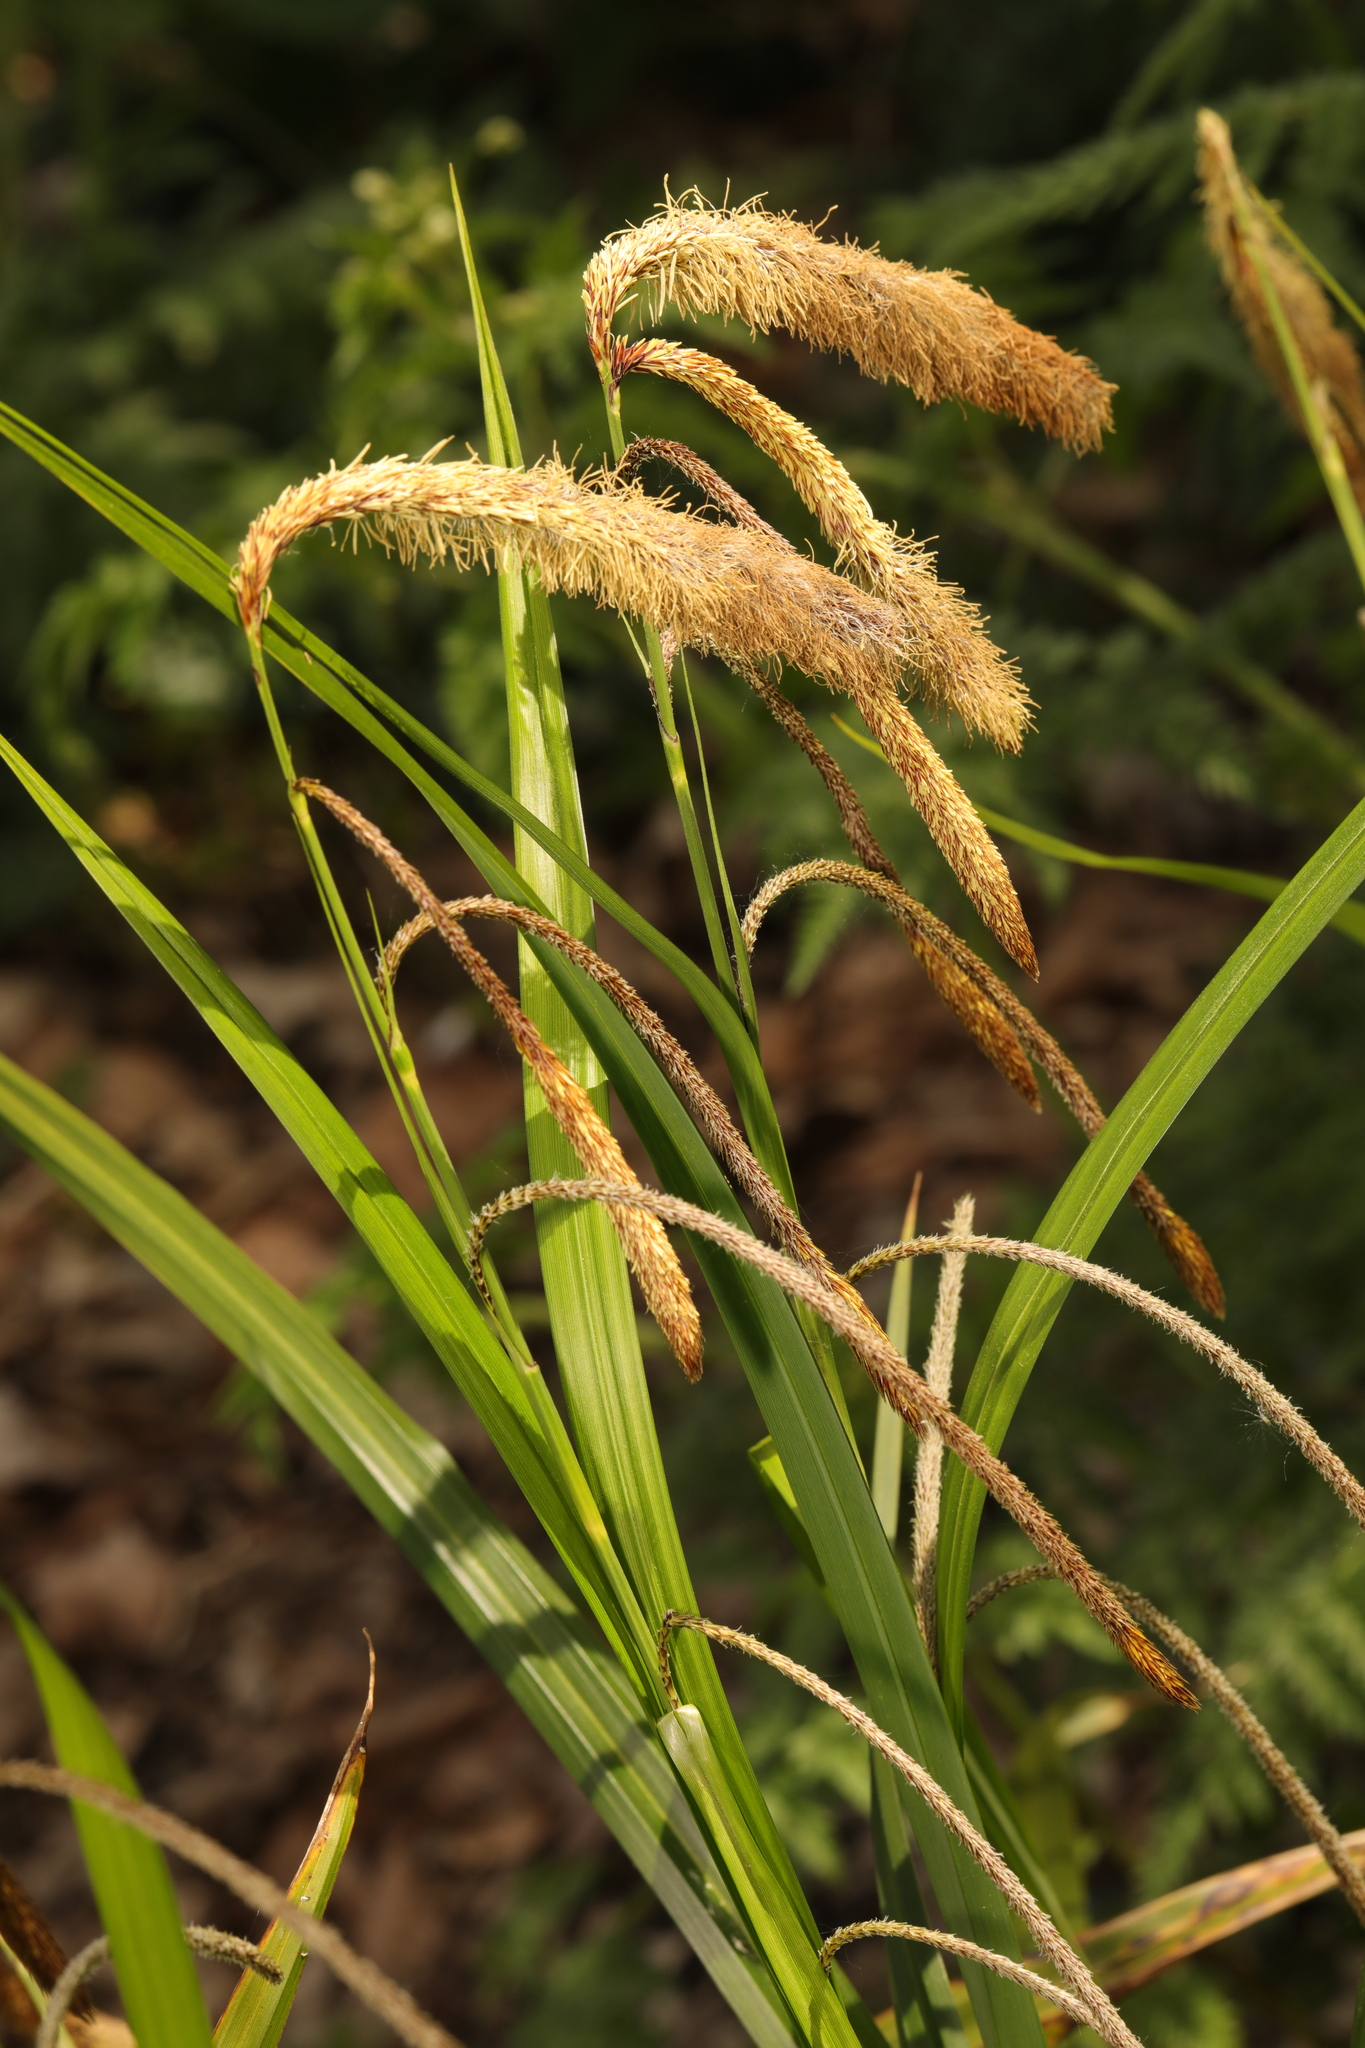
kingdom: Plantae
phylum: Tracheophyta
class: Liliopsida
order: Poales
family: Cyperaceae
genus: Carex
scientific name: Carex pendula
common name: Pendulous sedge
